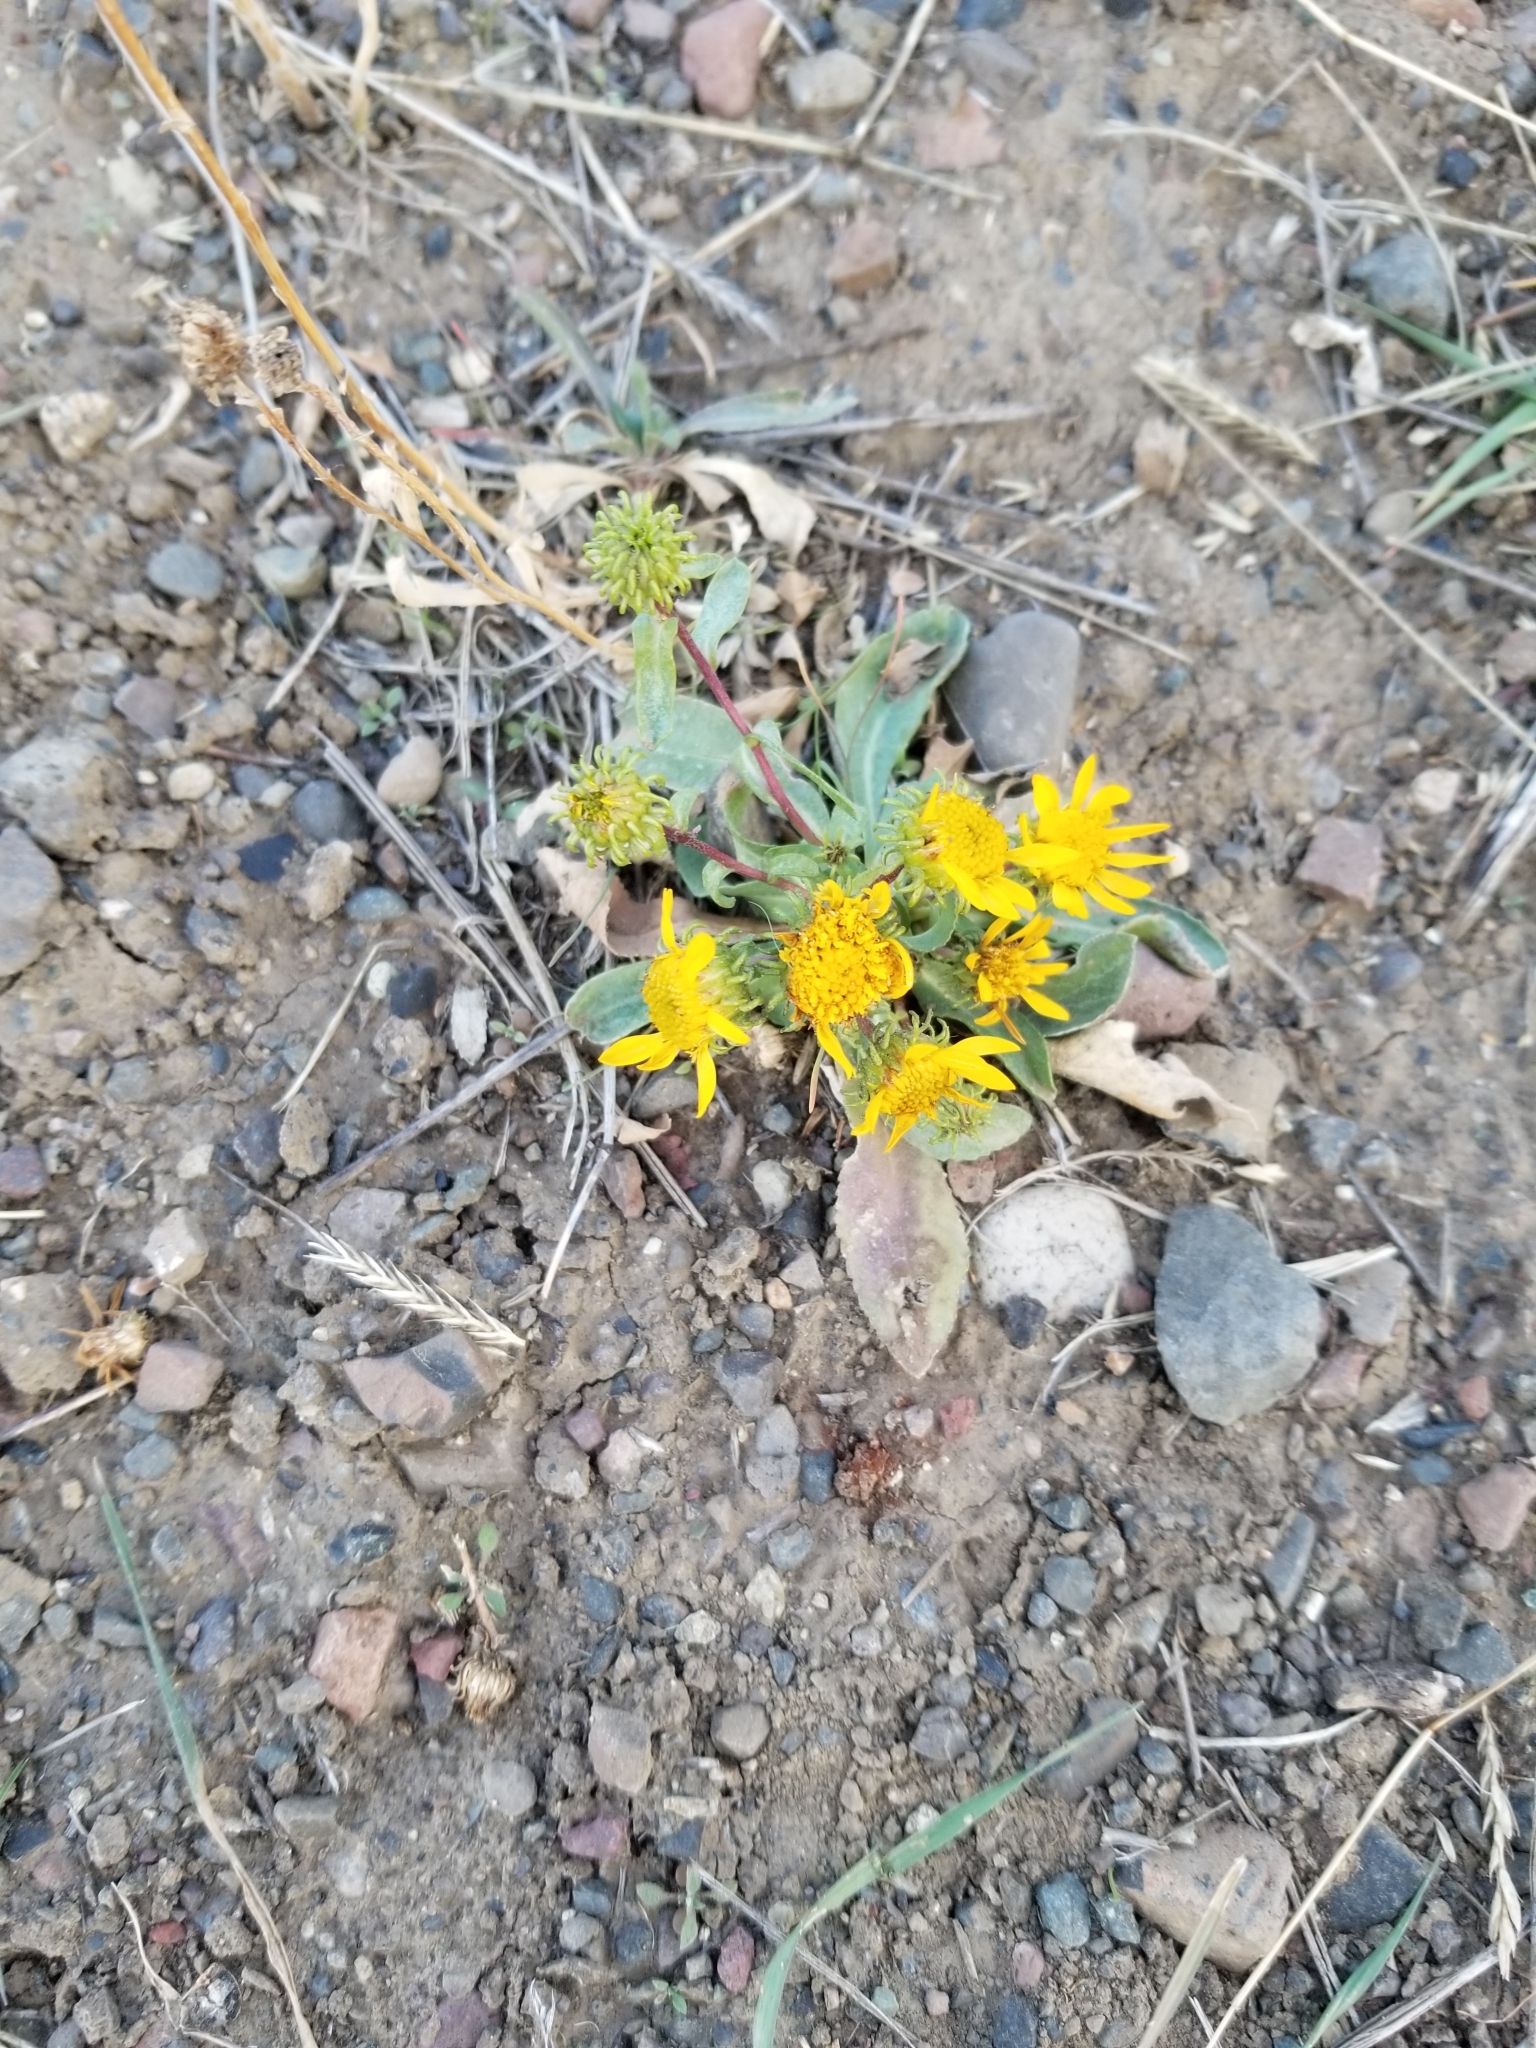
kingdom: Plantae
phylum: Tracheophyta
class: Magnoliopsida
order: Asterales
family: Asteraceae
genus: Grindelia
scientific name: Grindelia squarrosa
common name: Curly-cup gumweed
